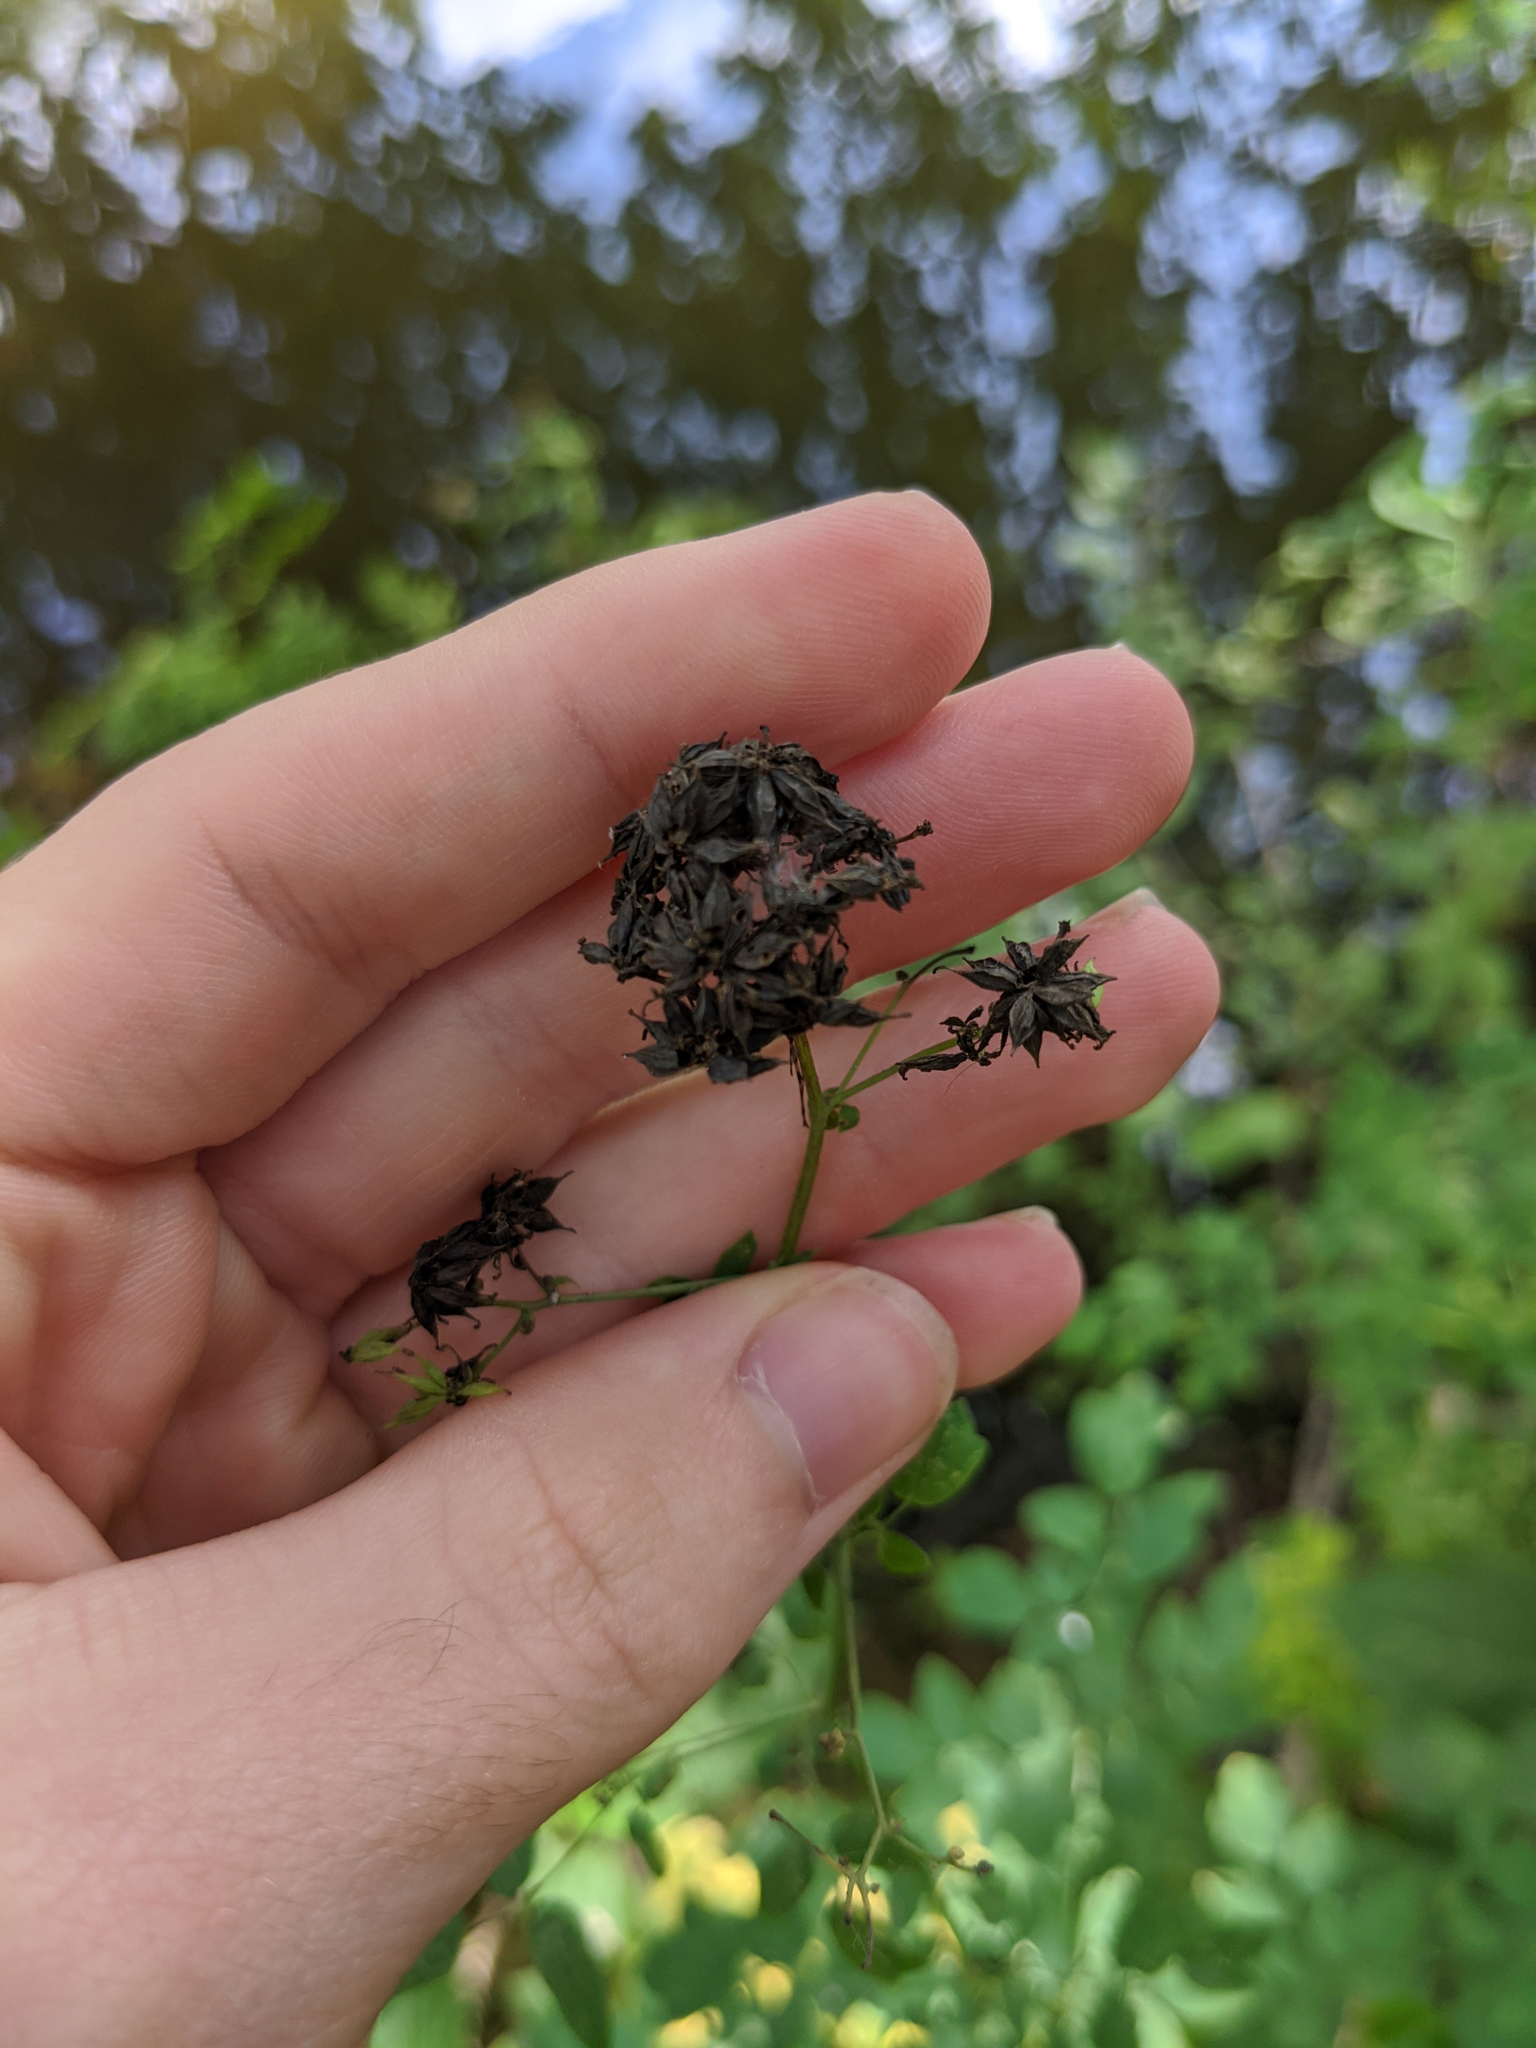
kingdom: Plantae
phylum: Tracheophyta
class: Magnoliopsida
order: Ranunculales
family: Ranunculaceae
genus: Thalictrum
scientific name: Thalictrum pubescens
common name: King-of-the-meadow
